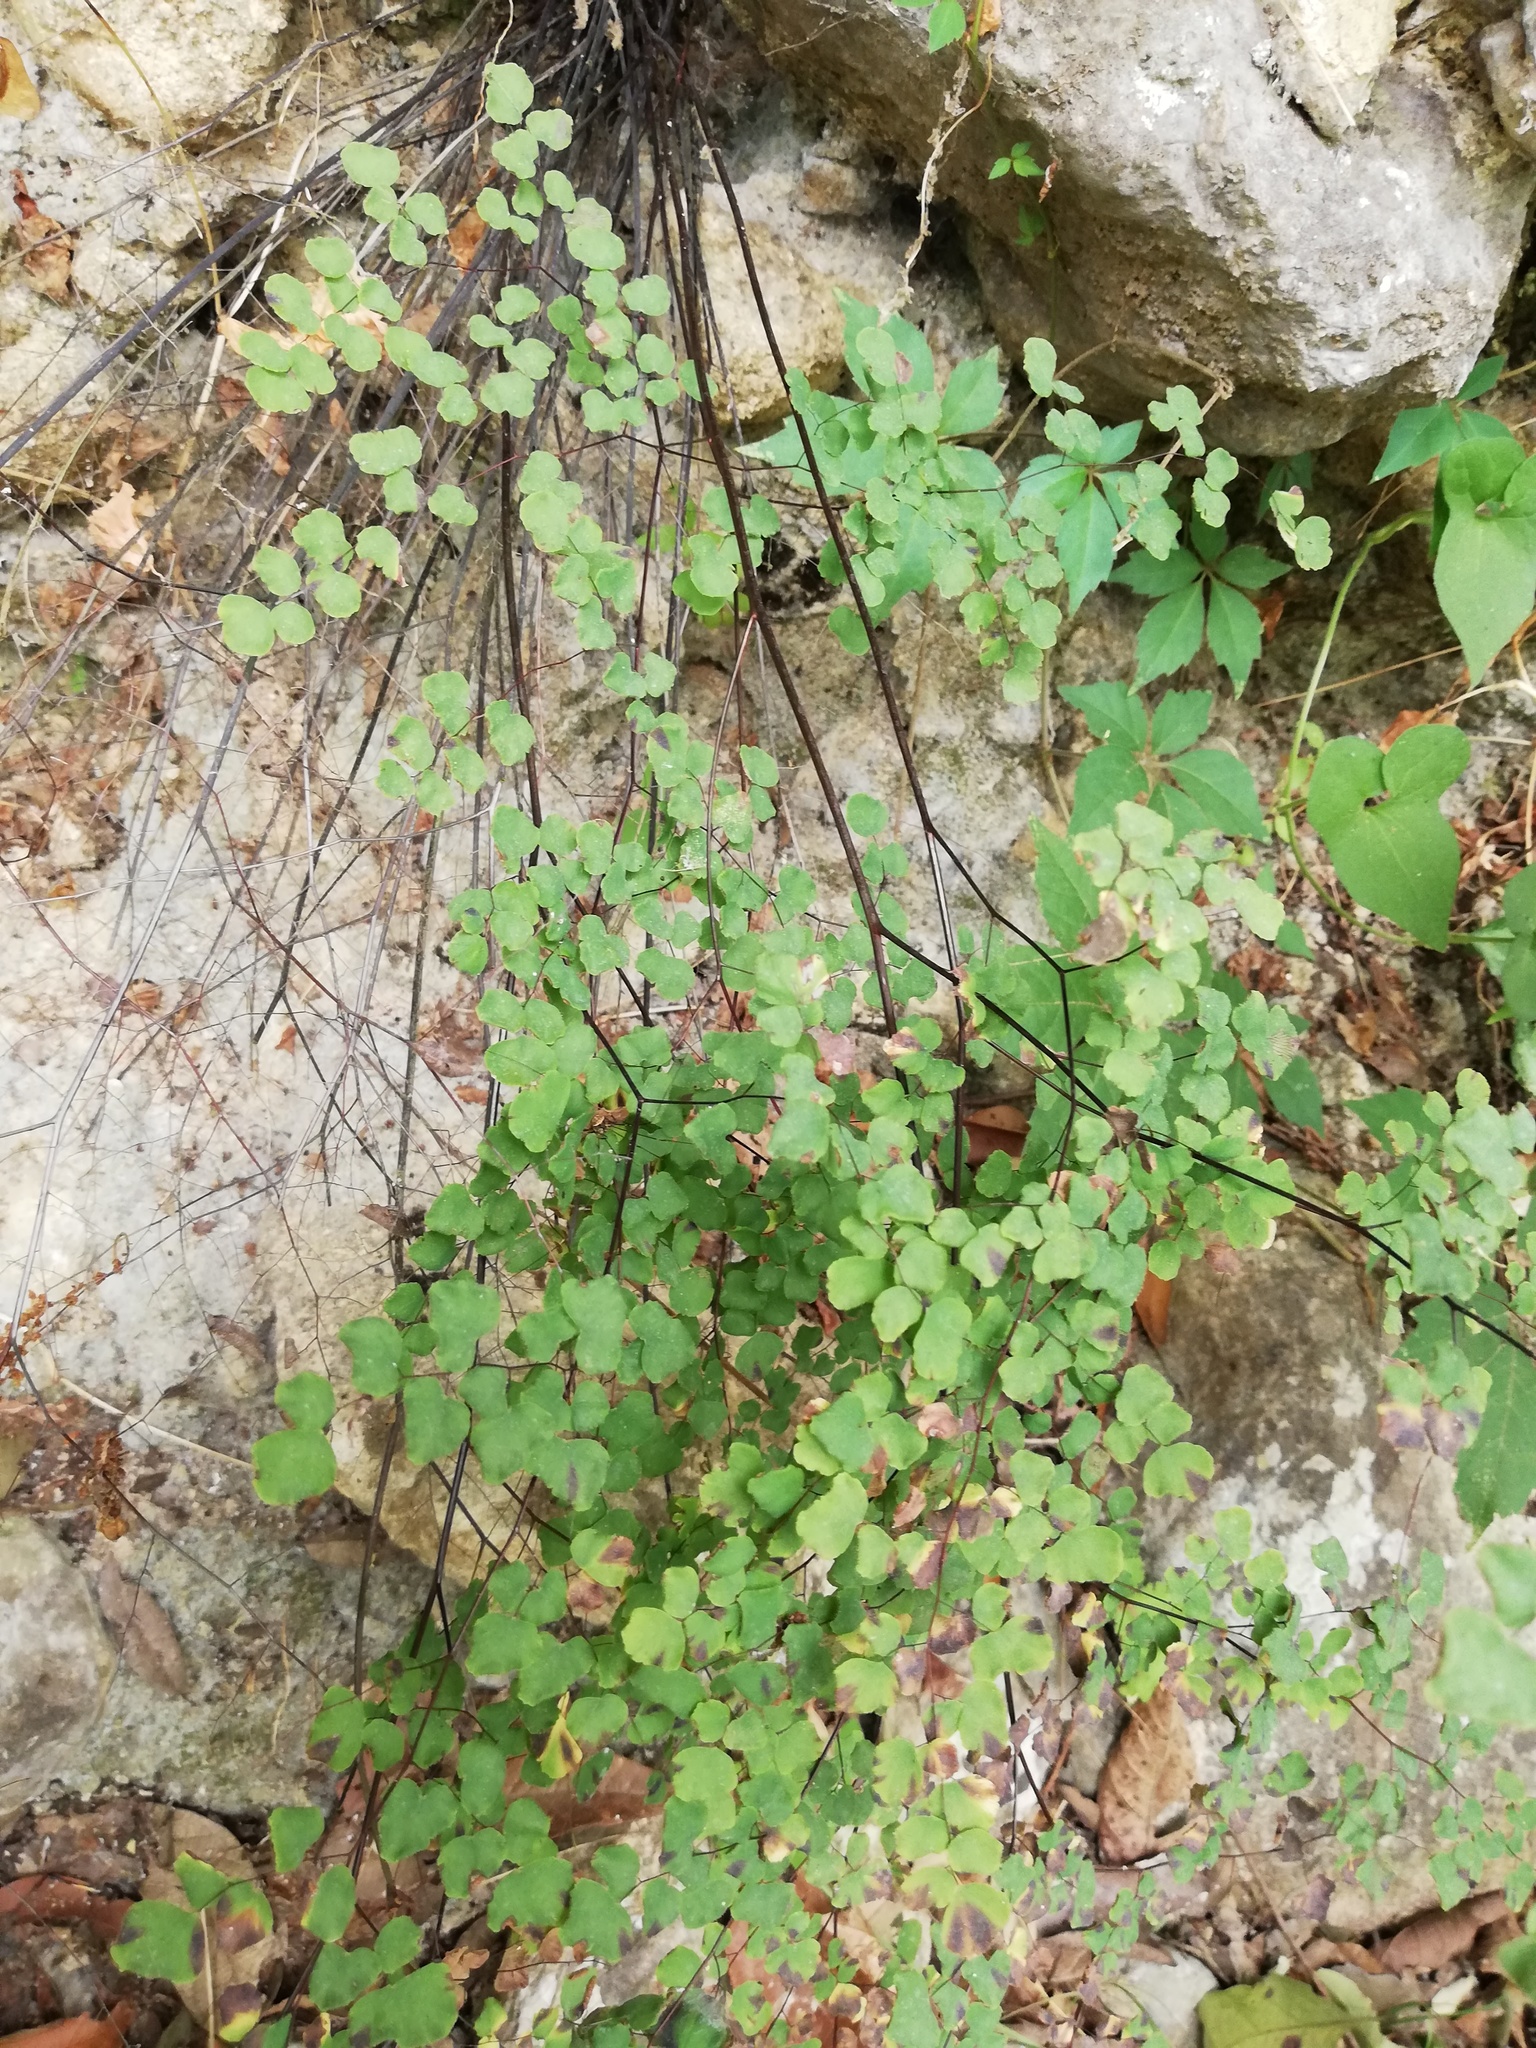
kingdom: Plantae
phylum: Tracheophyta
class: Polypodiopsida
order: Polypodiales
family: Pteridaceae
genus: Adiantum
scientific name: Adiantum tricholepis
